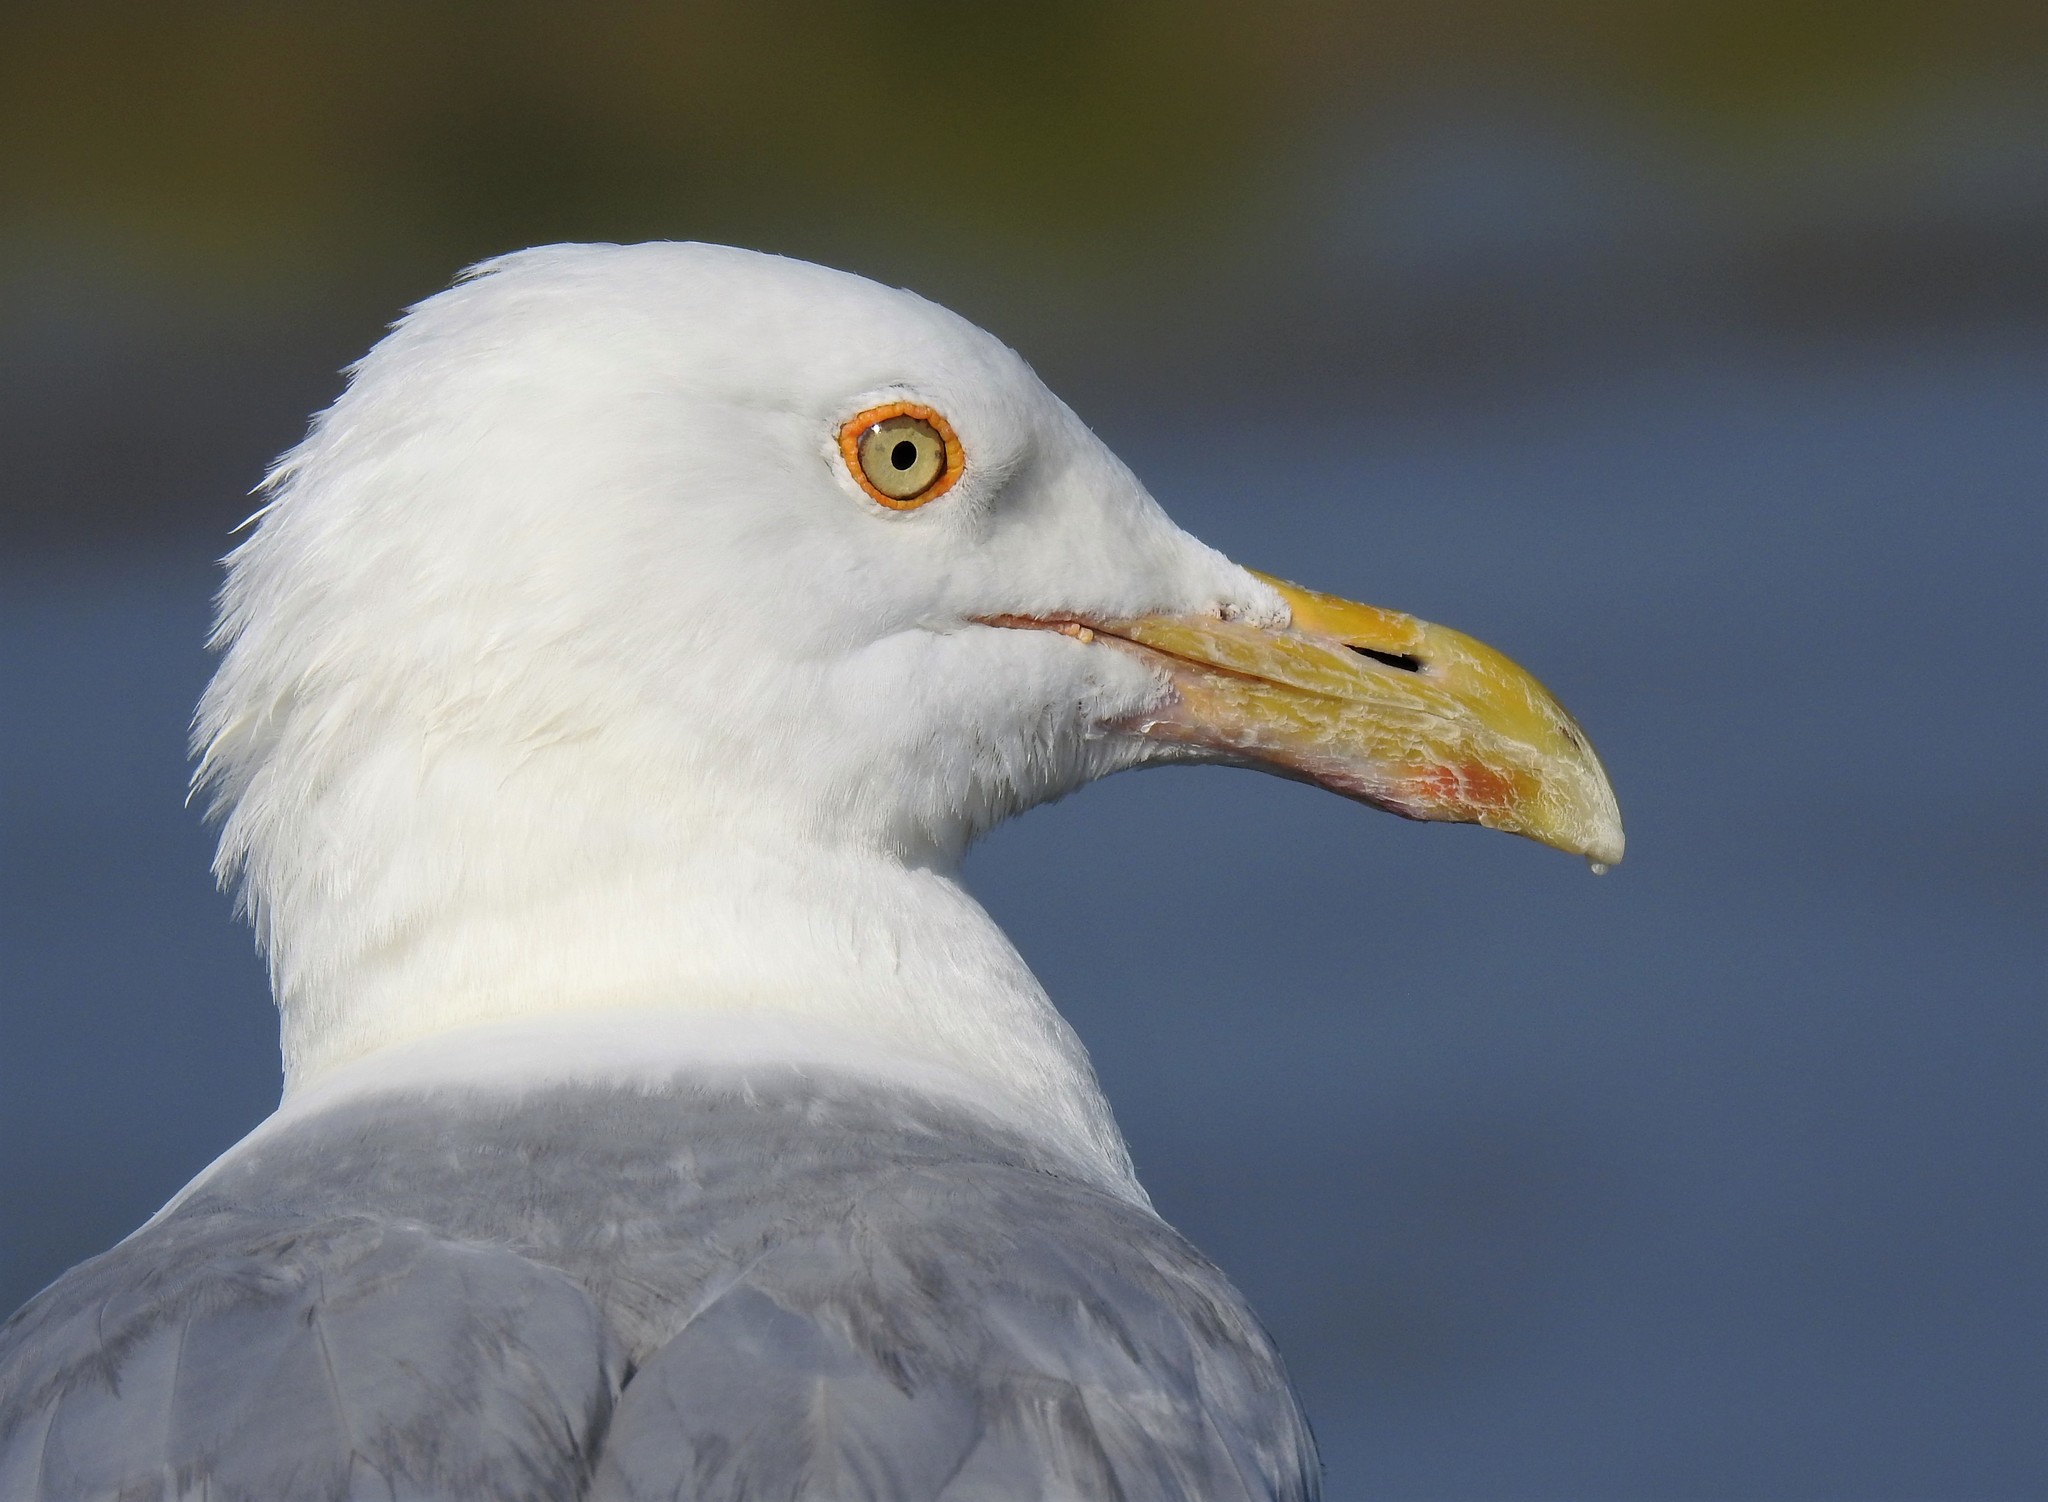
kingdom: Animalia
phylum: Chordata
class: Aves
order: Charadriiformes
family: Laridae
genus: Larus
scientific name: Larus argentatus
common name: Herring gull
